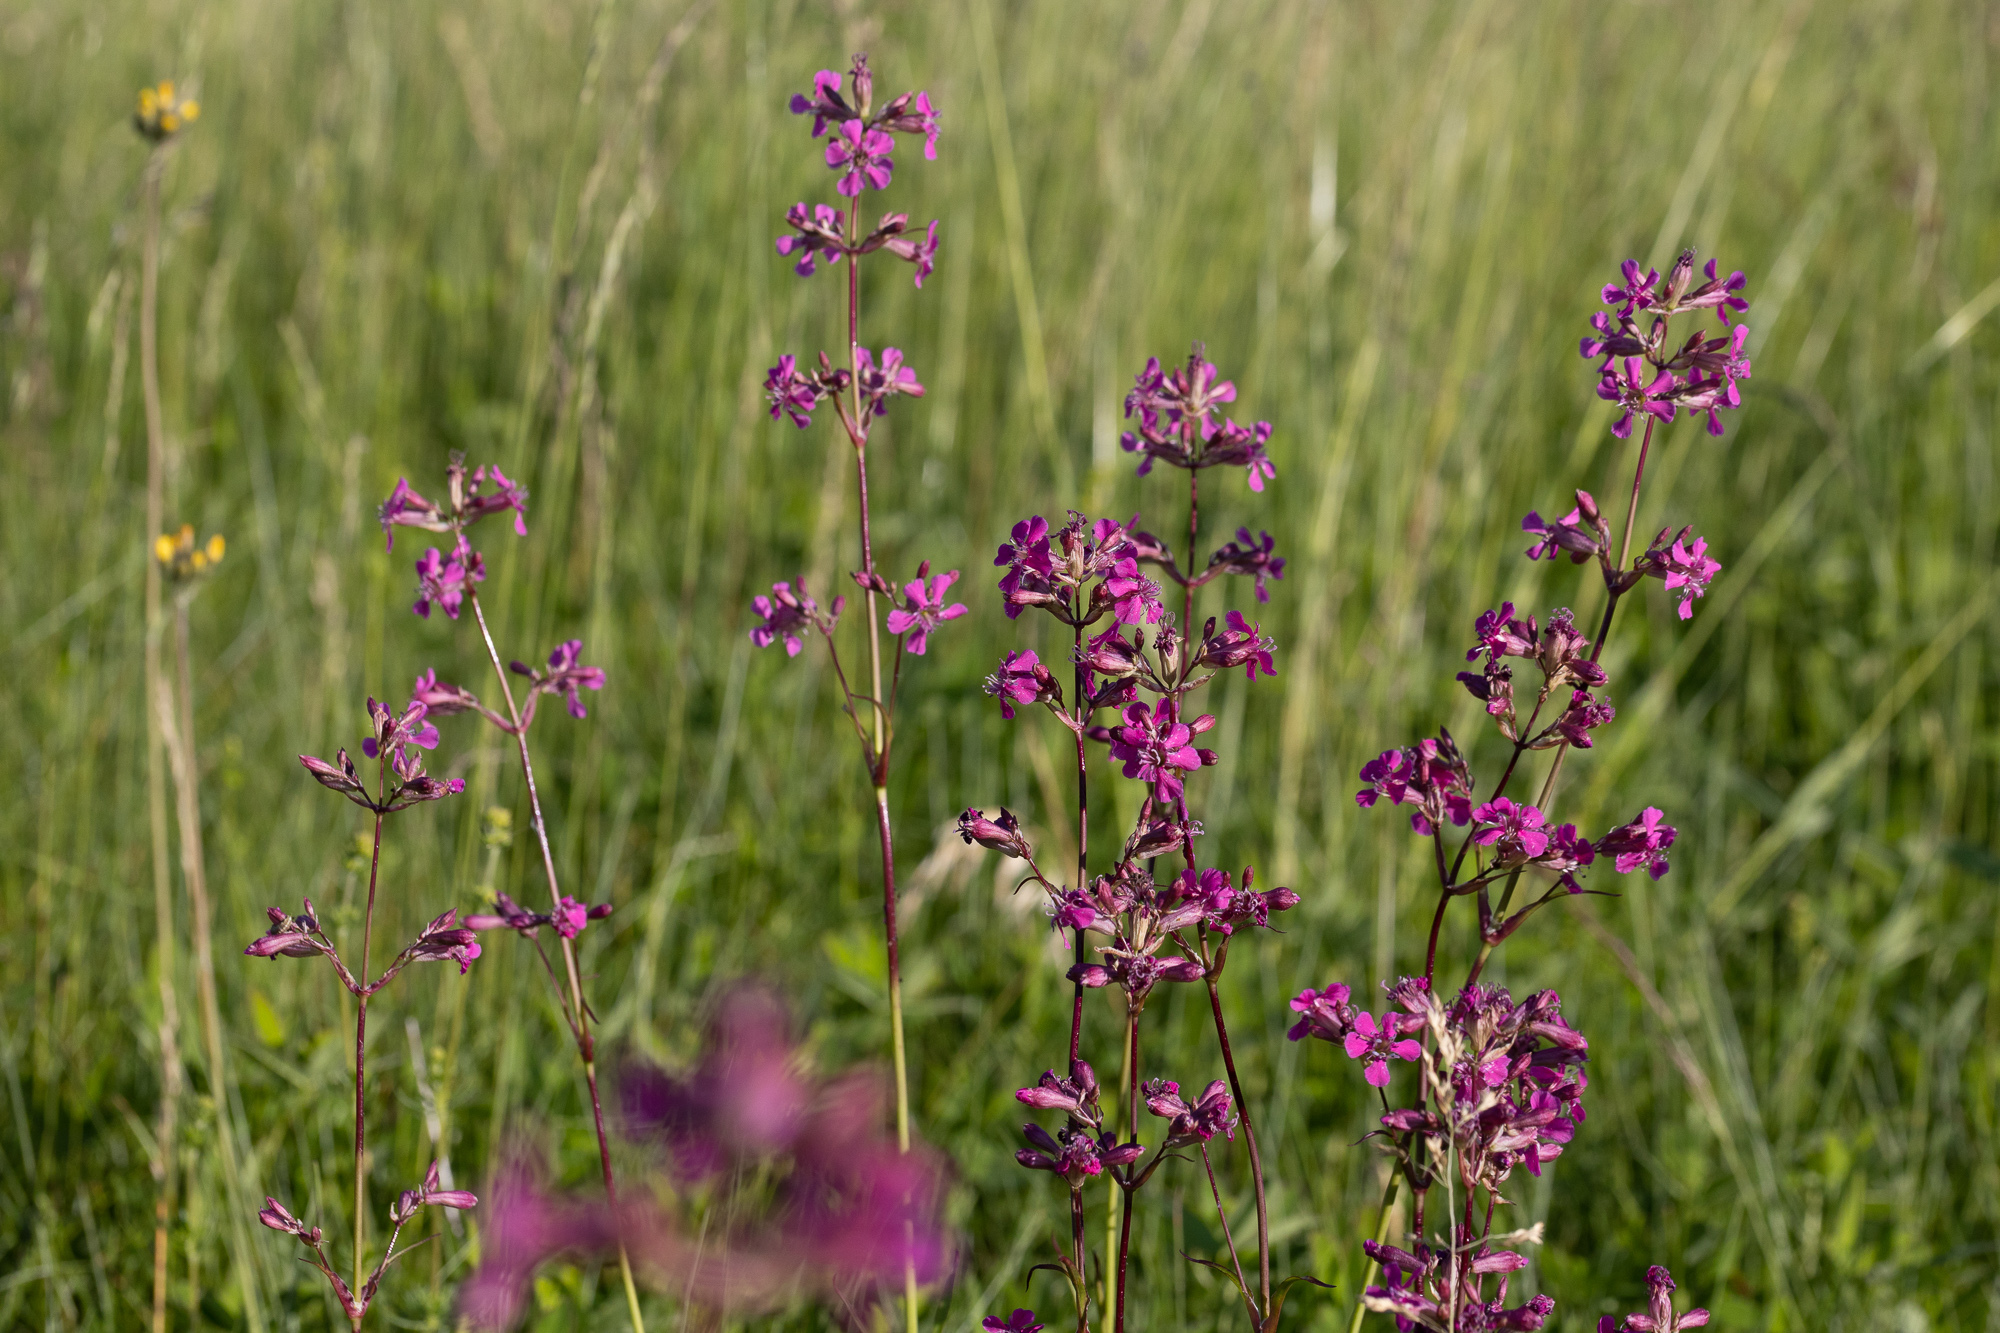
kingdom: Plantae
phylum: Tracheophyta
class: Magnoliopsida
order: Caryophyllales
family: Caryophyllaceae
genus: Viscaria
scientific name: Viscaria vulgaris
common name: Clammy campion
